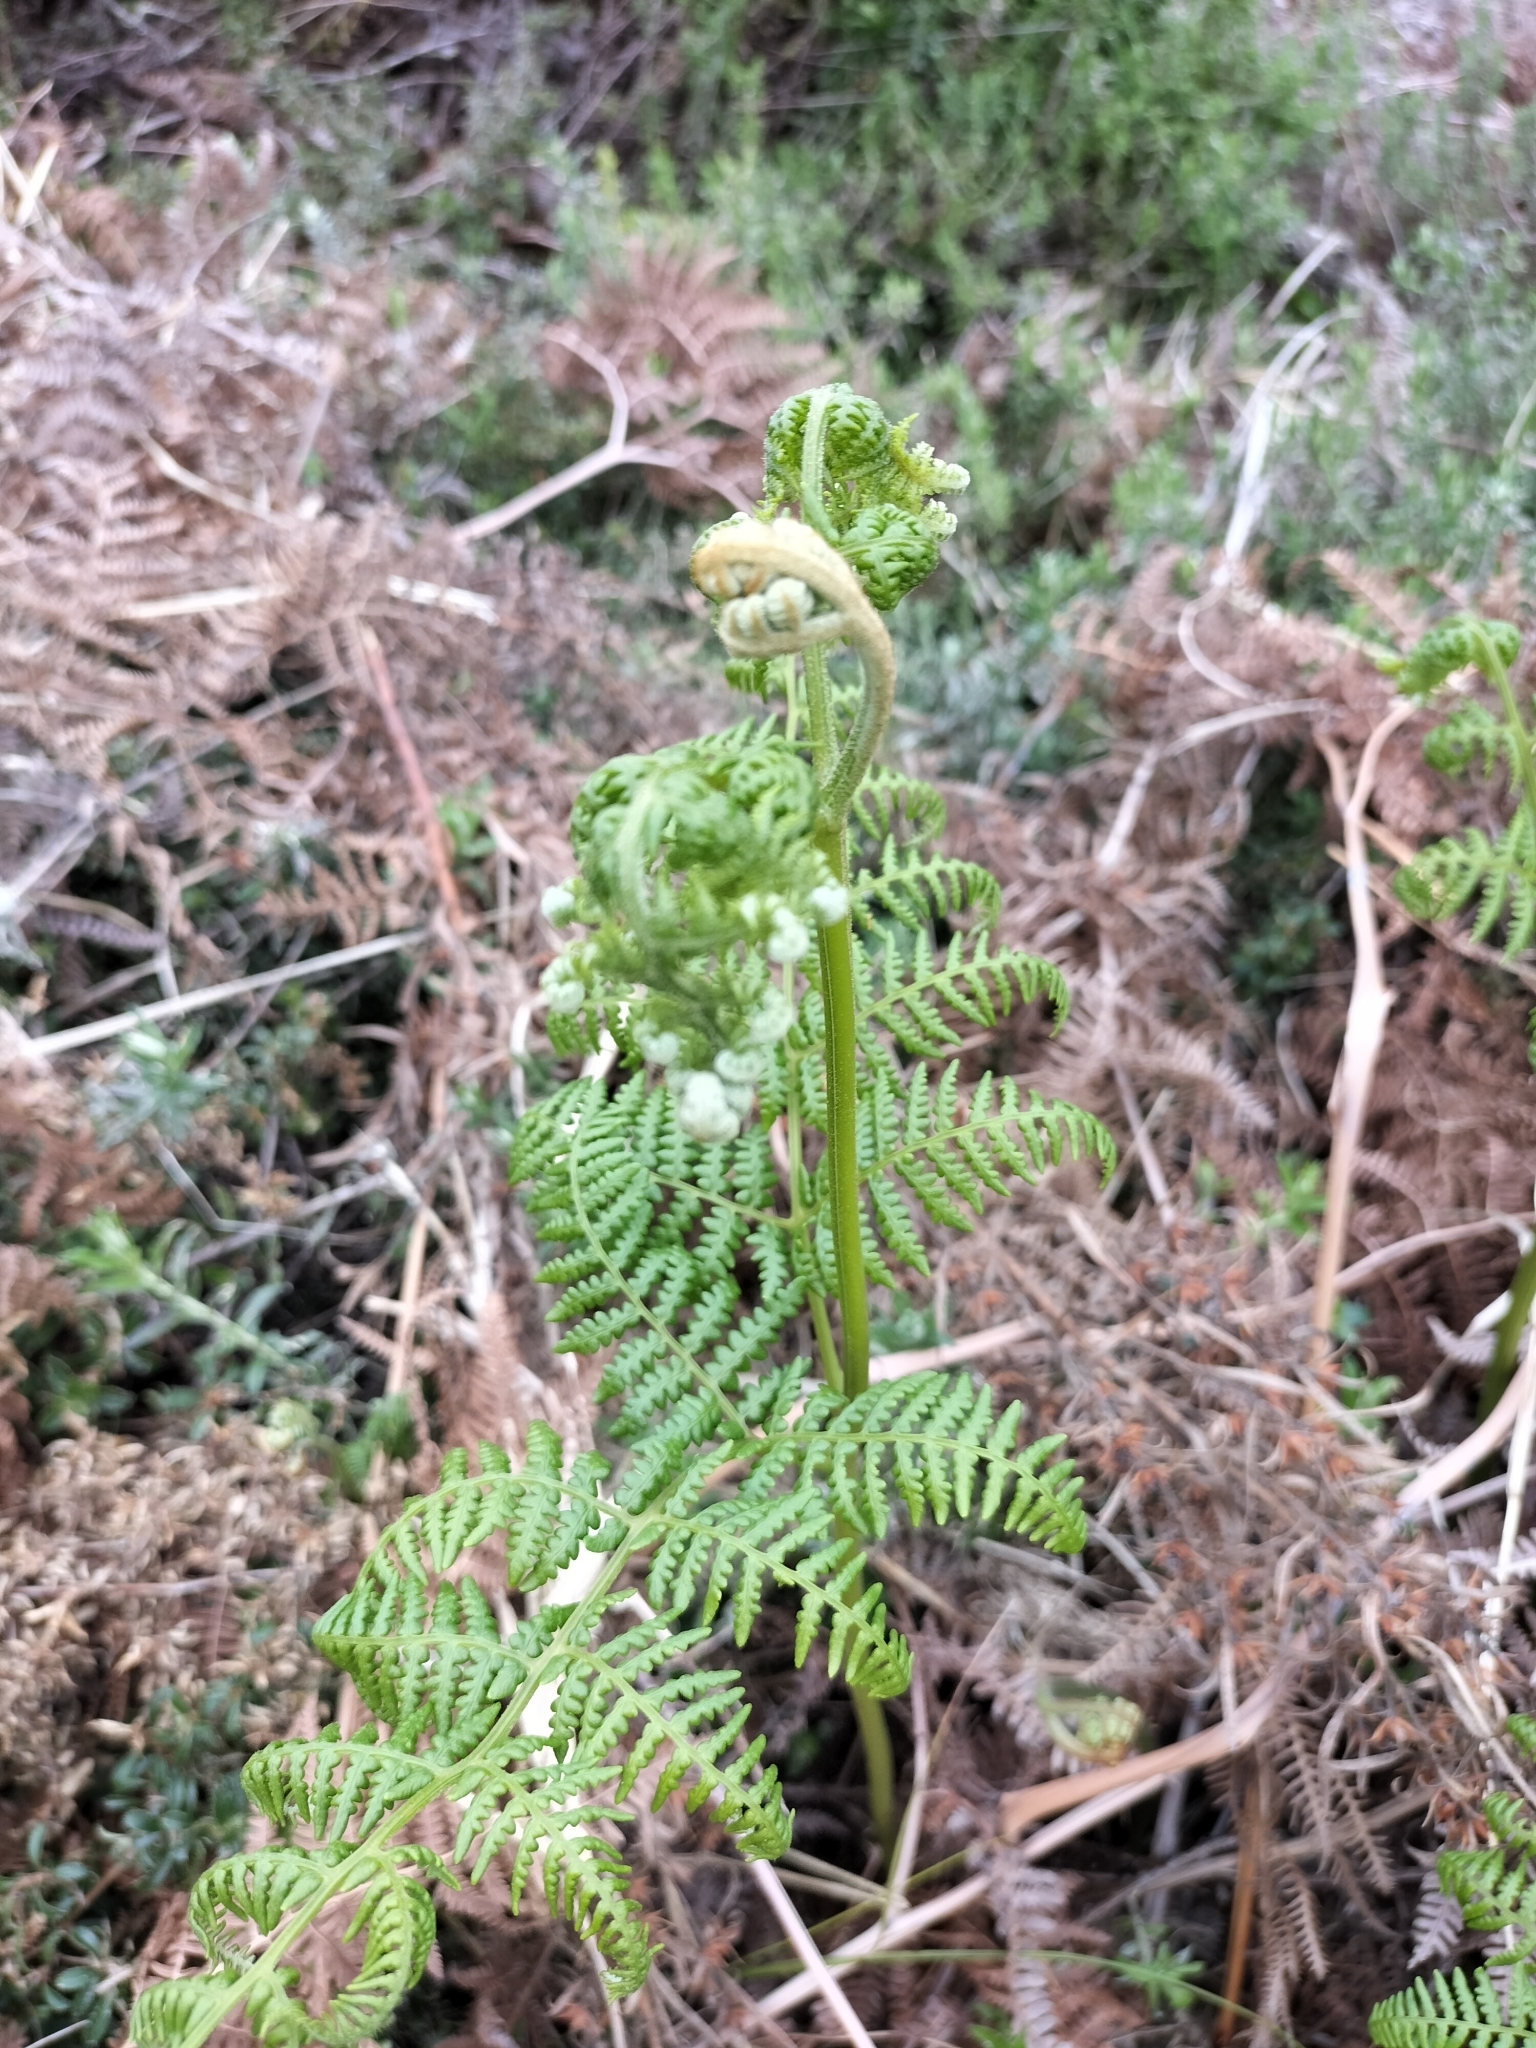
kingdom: Plantae
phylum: Tracheophyta
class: Polypodiopsida
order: Polypodiales
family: Dennstaedtiaceae
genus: Pteridium
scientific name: Pteridium aquilinum
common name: Bracken
